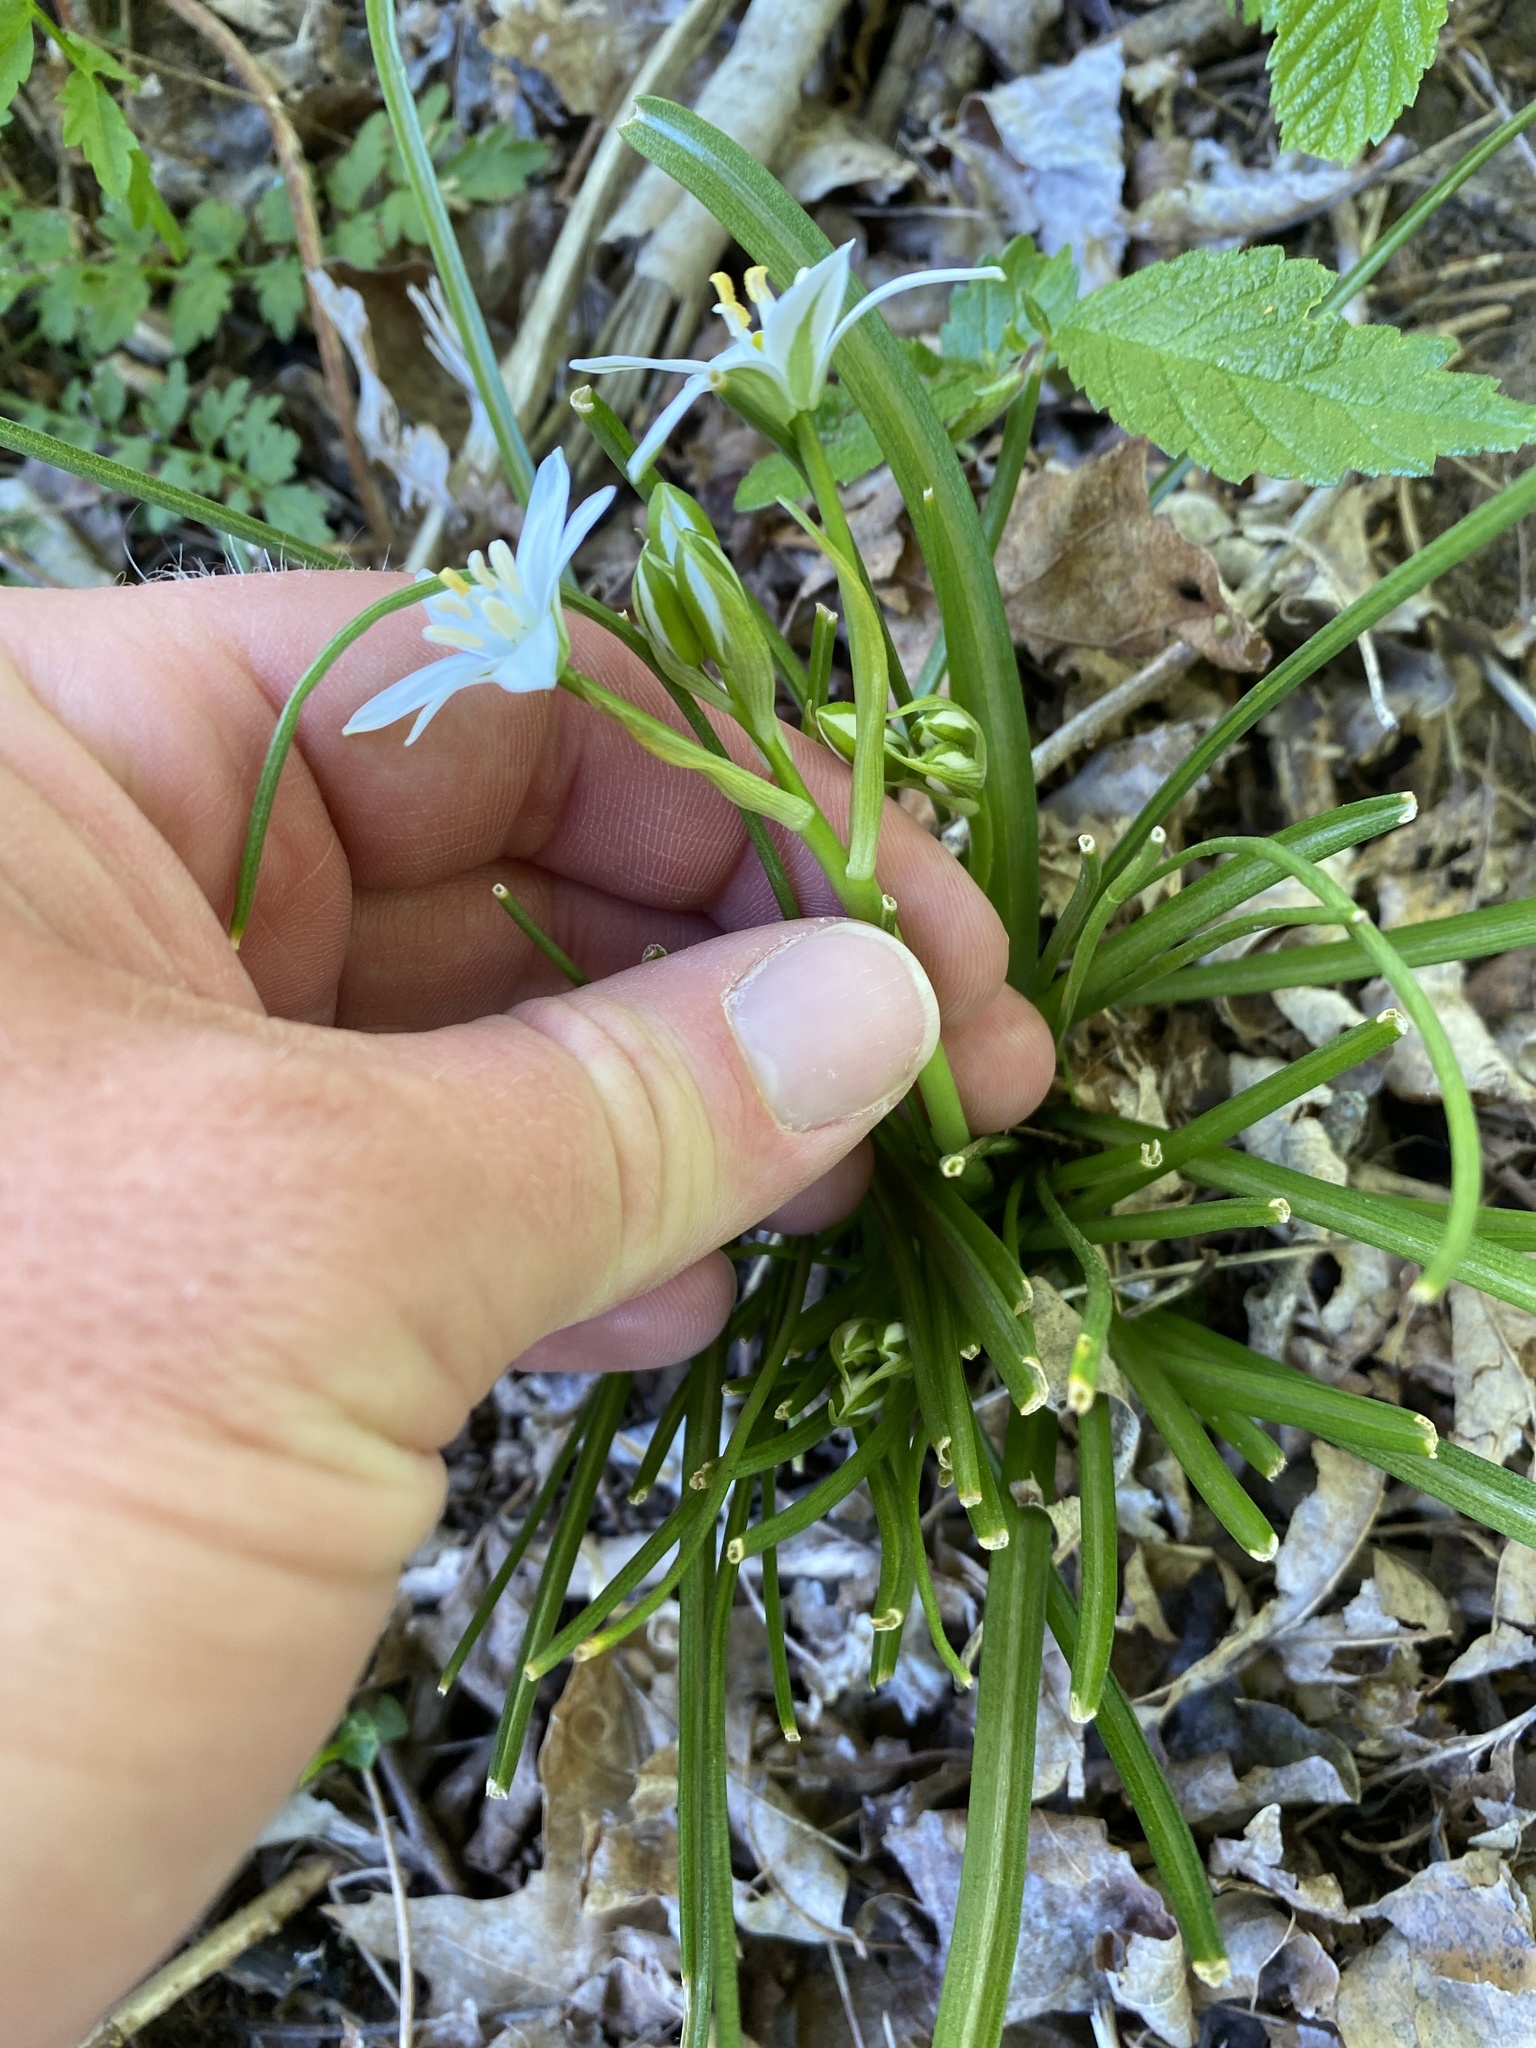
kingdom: Plantae
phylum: Tracheophyta
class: Liliopsida
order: Asparagales
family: Asparagaceae
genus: Ornithogalum
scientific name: Ornithogalum umbellatum
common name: Garden star-of-bethlehem
